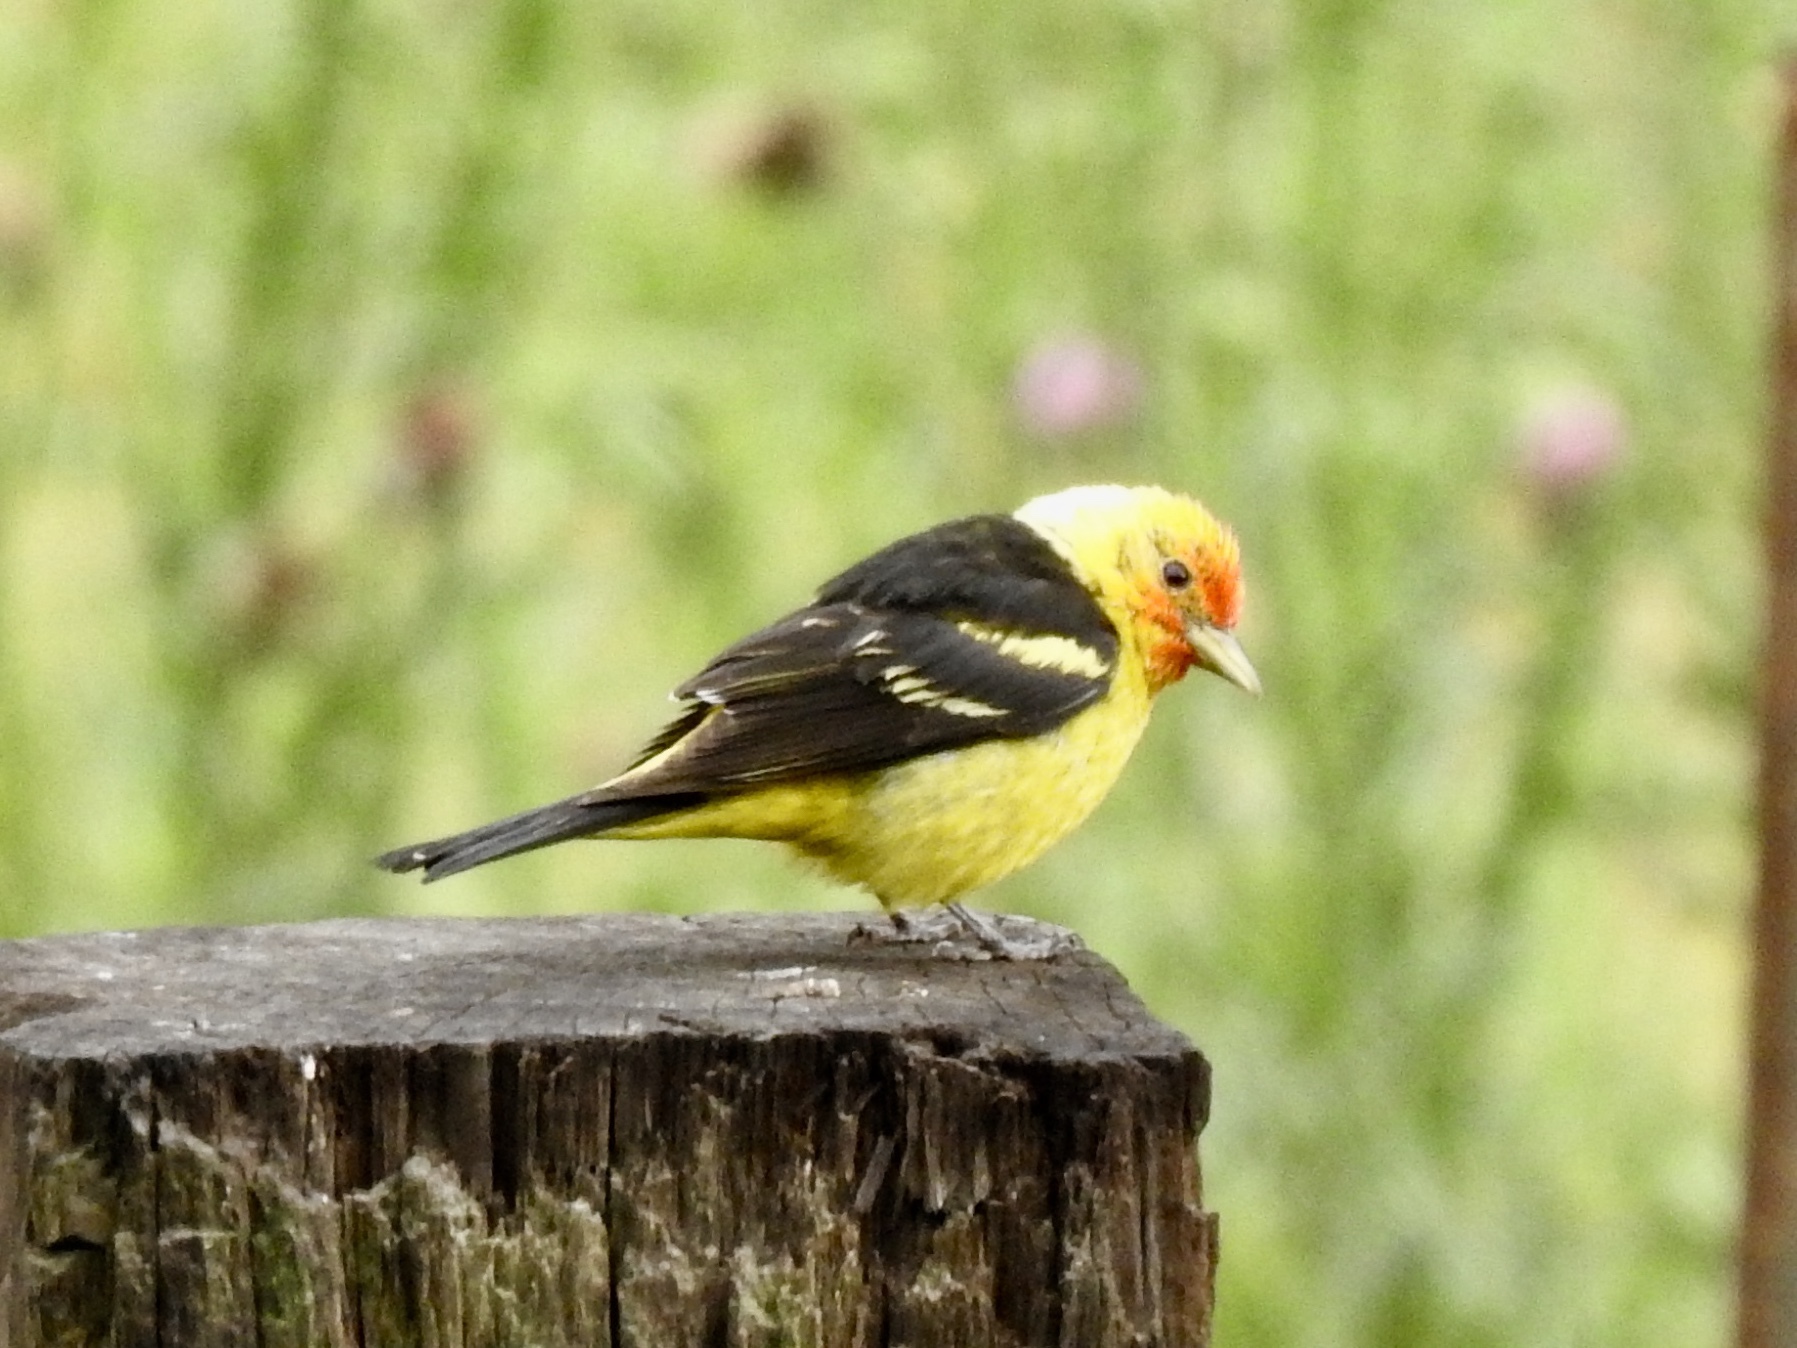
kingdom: Animalia
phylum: Chordata
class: Aves
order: Passeriformes
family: Cardinalidae
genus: Piranga
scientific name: Piranga ludoviciana
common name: Western tanager
